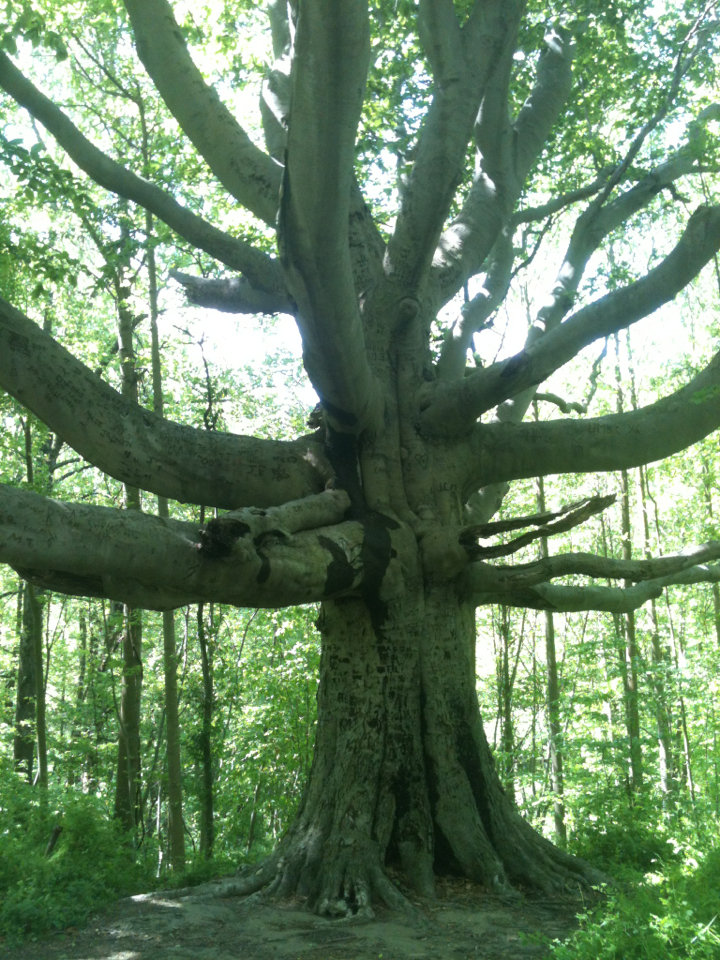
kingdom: Plantae
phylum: Tracheophyta
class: Magnoliopsida
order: Fagales
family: Fagaceae
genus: Fagus
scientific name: Fagus grandifolia
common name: American beech
